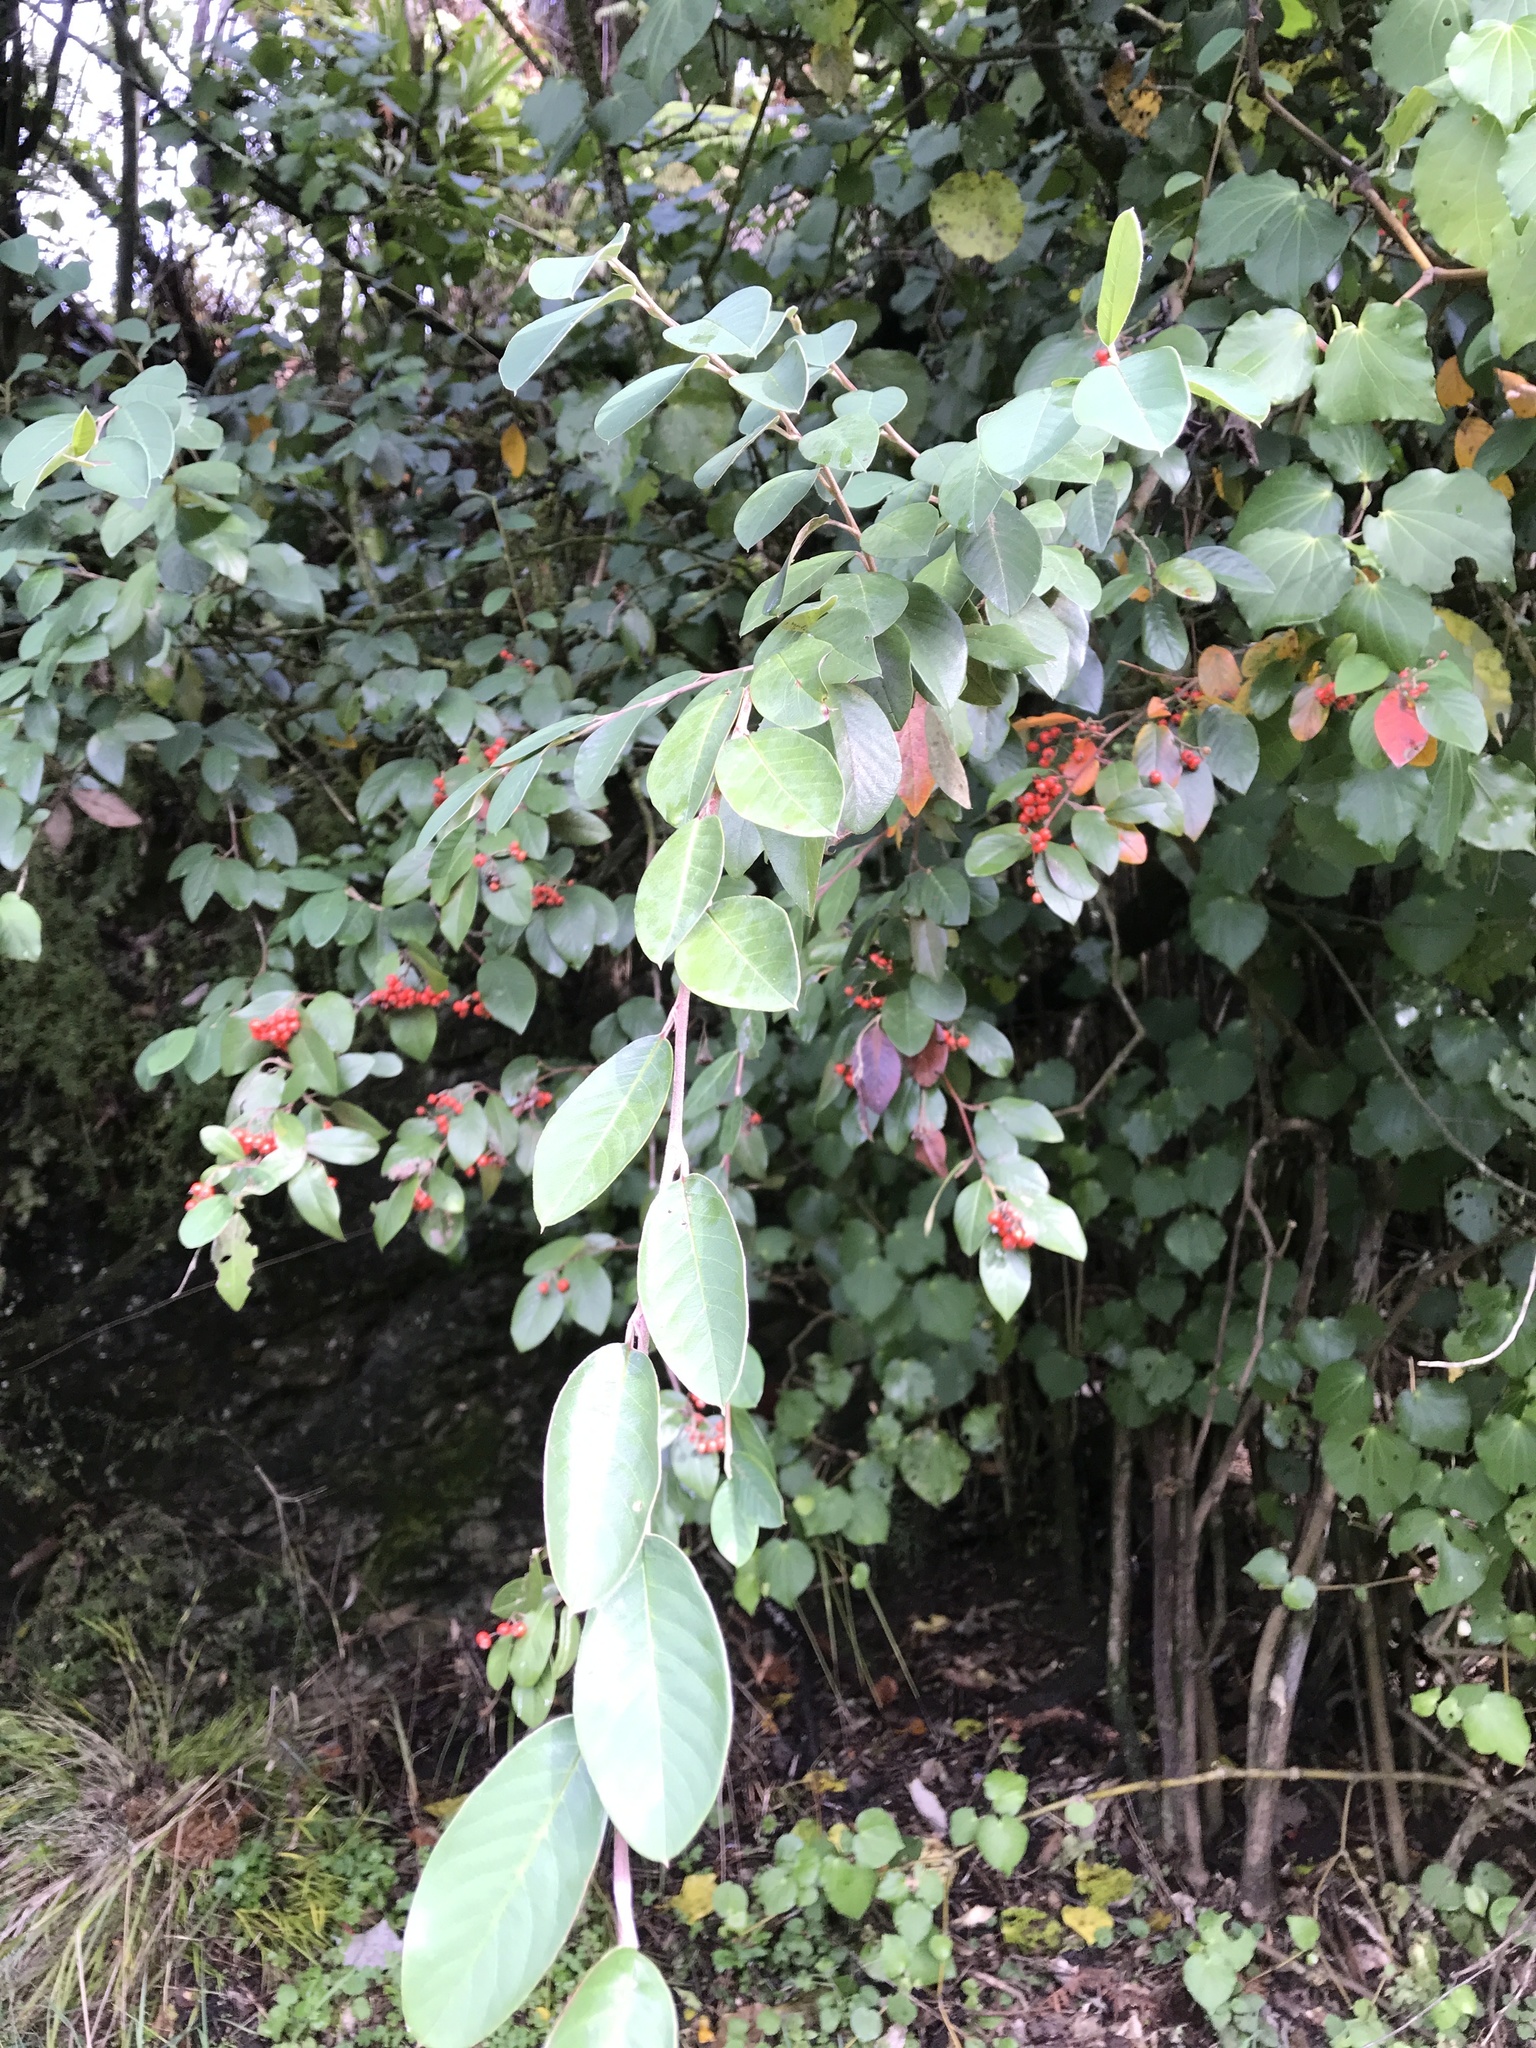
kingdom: Plantae
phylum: Tracheophyta
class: Magnoliopsida
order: Rosales
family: Rosaceae
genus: Cotoneaster
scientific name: Cotoneaster glaucophyllus
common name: Glaucous cotoneaster
